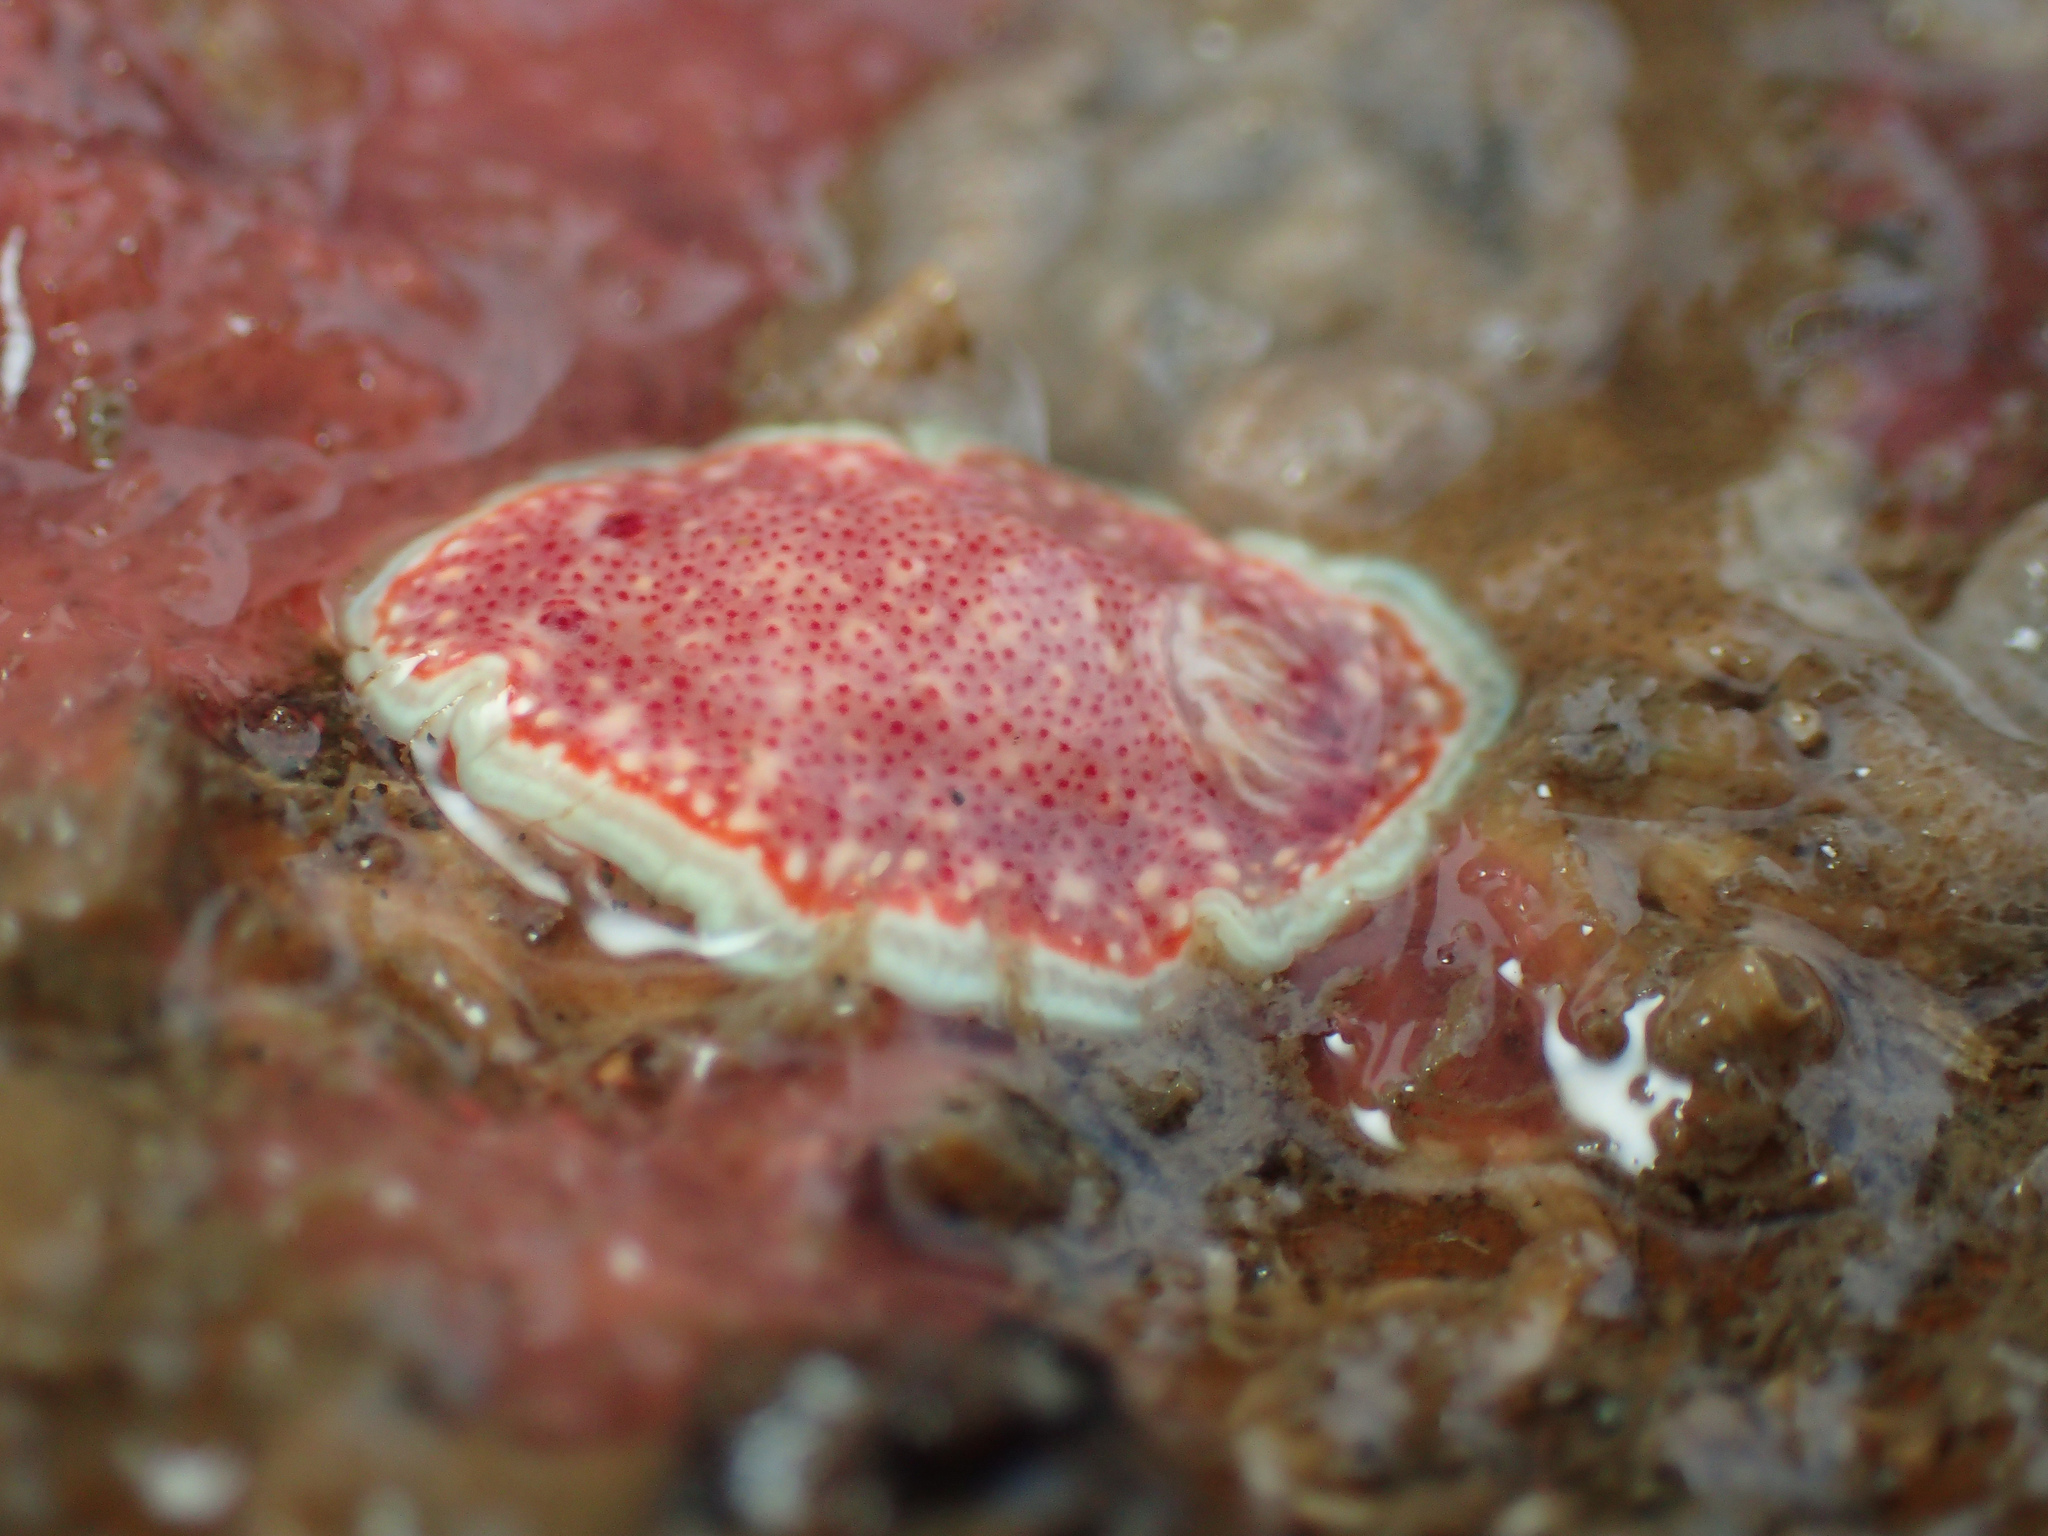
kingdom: Animalia
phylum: Mollusca
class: Gastropoda
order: Nudibranchia
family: Chromodorididae
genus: Felimida
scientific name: Felimida baumanni
